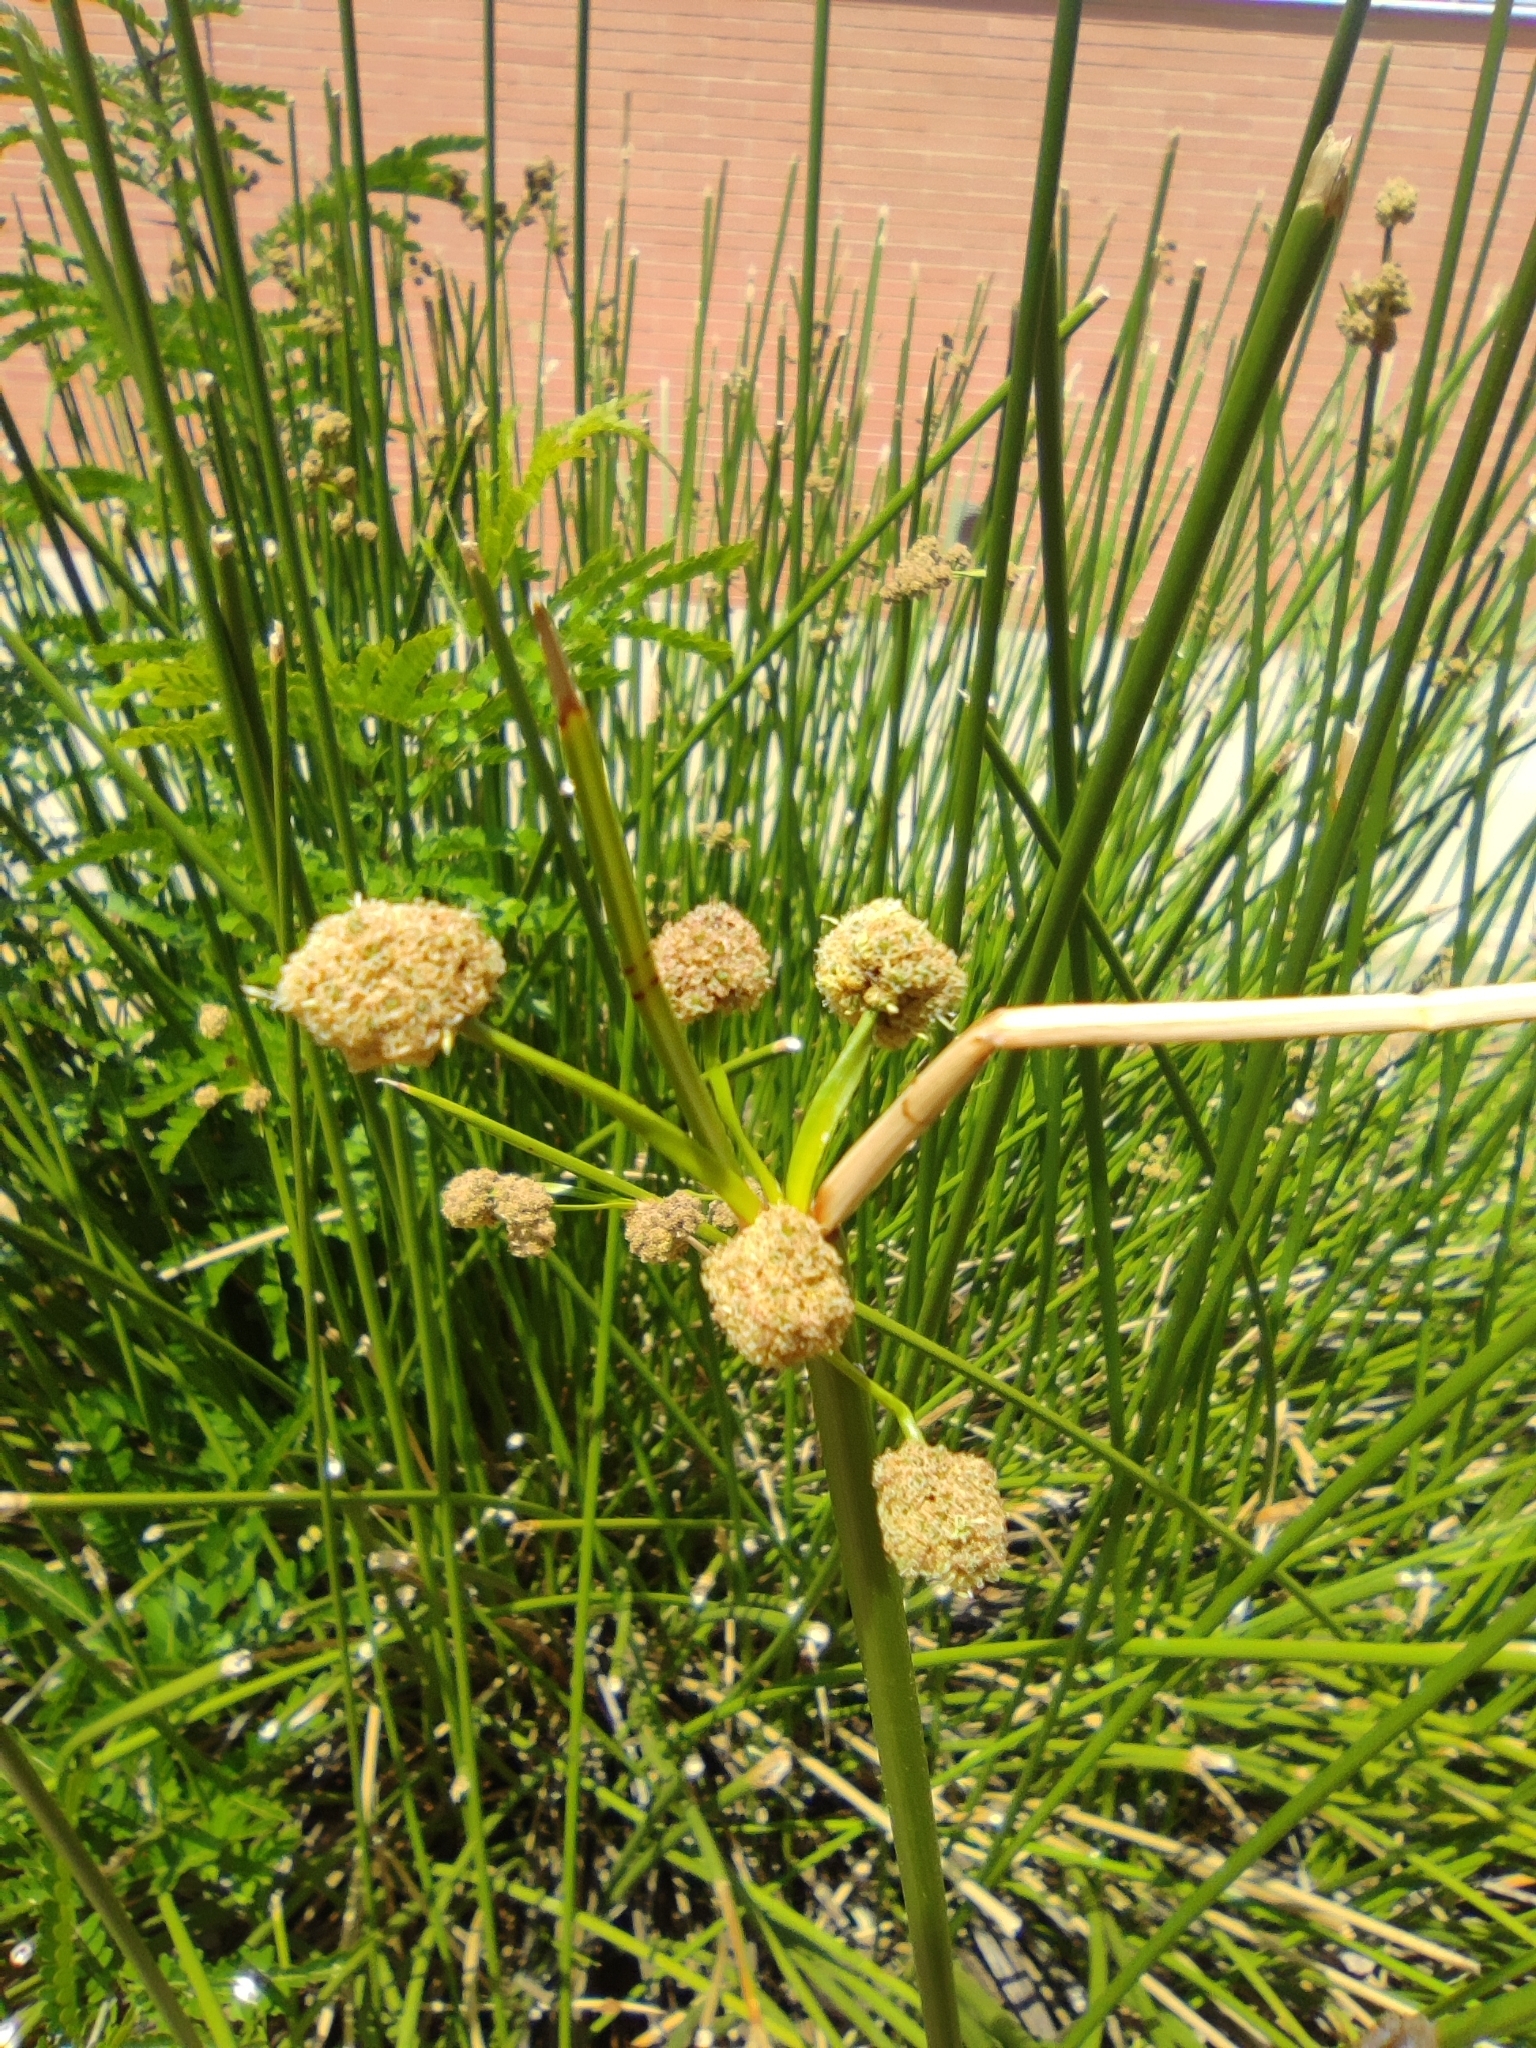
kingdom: Plantae
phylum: Tracheophyta
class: Liliopsida
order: Poales
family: Cyperaceae
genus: Scirpoides
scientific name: Scirpoides holoschoenus
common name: Round-headed club-rush
